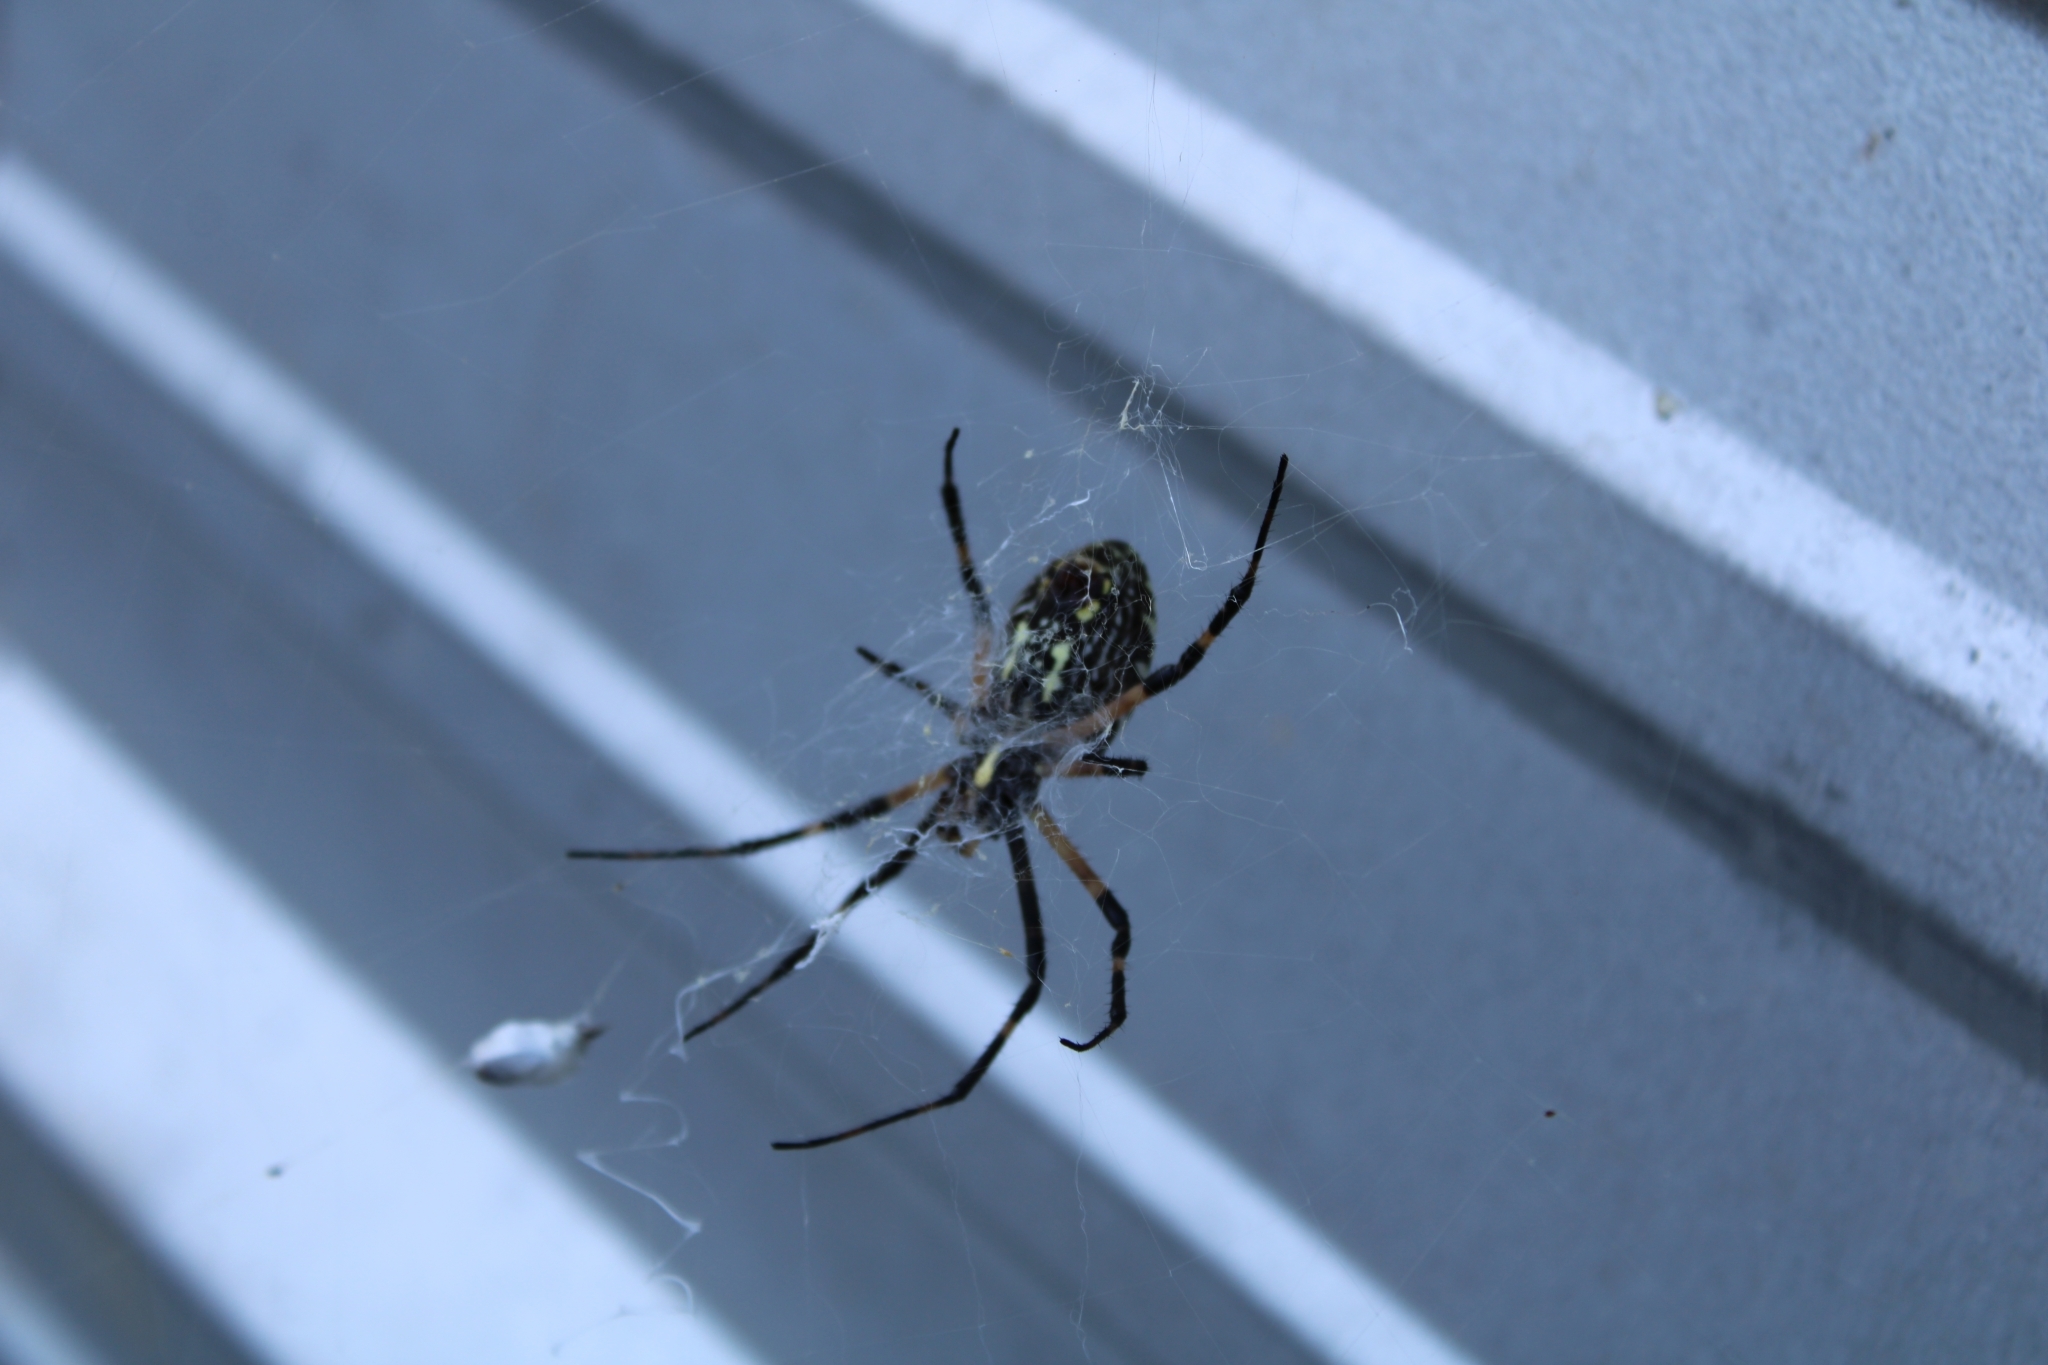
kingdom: Animalia
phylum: Arthropoda
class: Arachnida
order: Araneae
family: Araneidae
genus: Argiope
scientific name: Argiope aurantia
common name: Orb weavers
